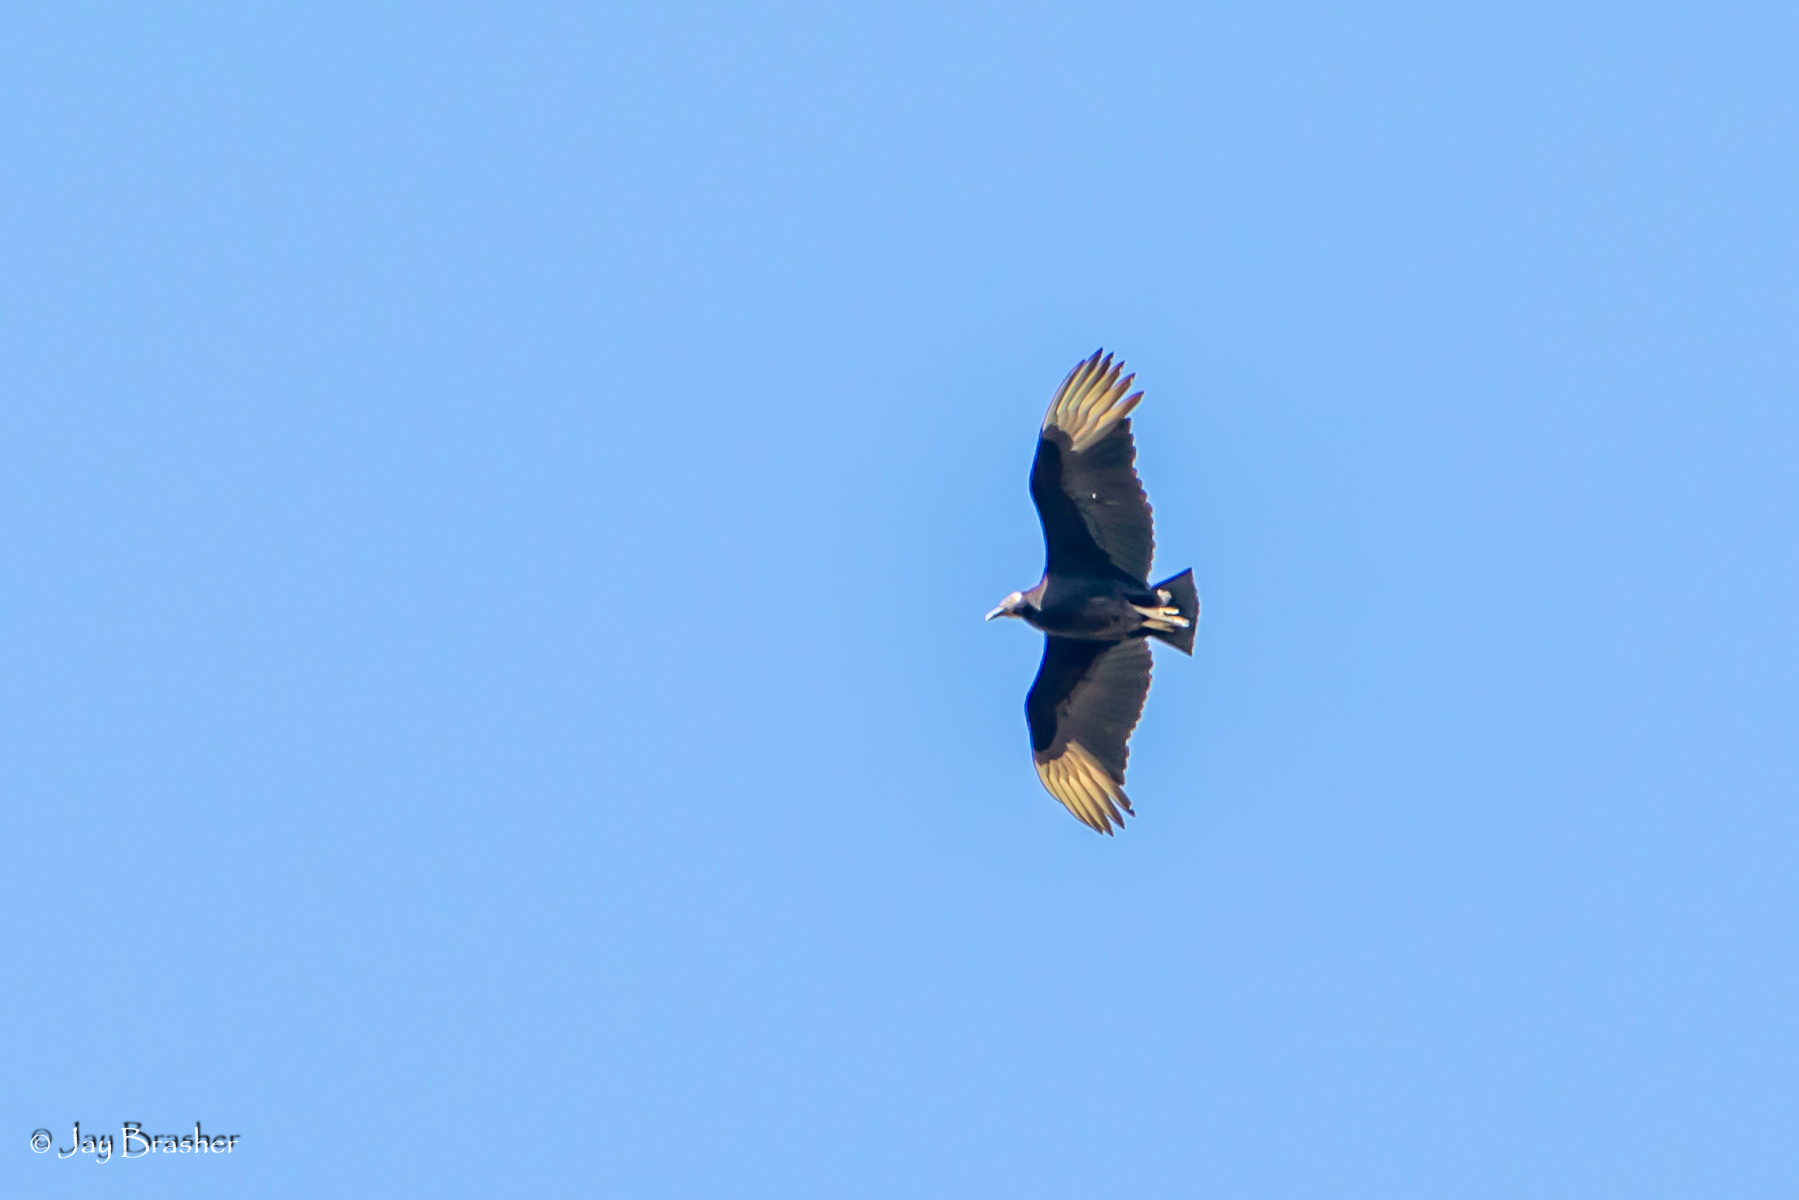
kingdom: Animalia
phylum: Chordata
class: Aves
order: Accipitriformes
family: Cathartidae
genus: Coragyps
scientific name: Coragyps atratus
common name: Black vulture
